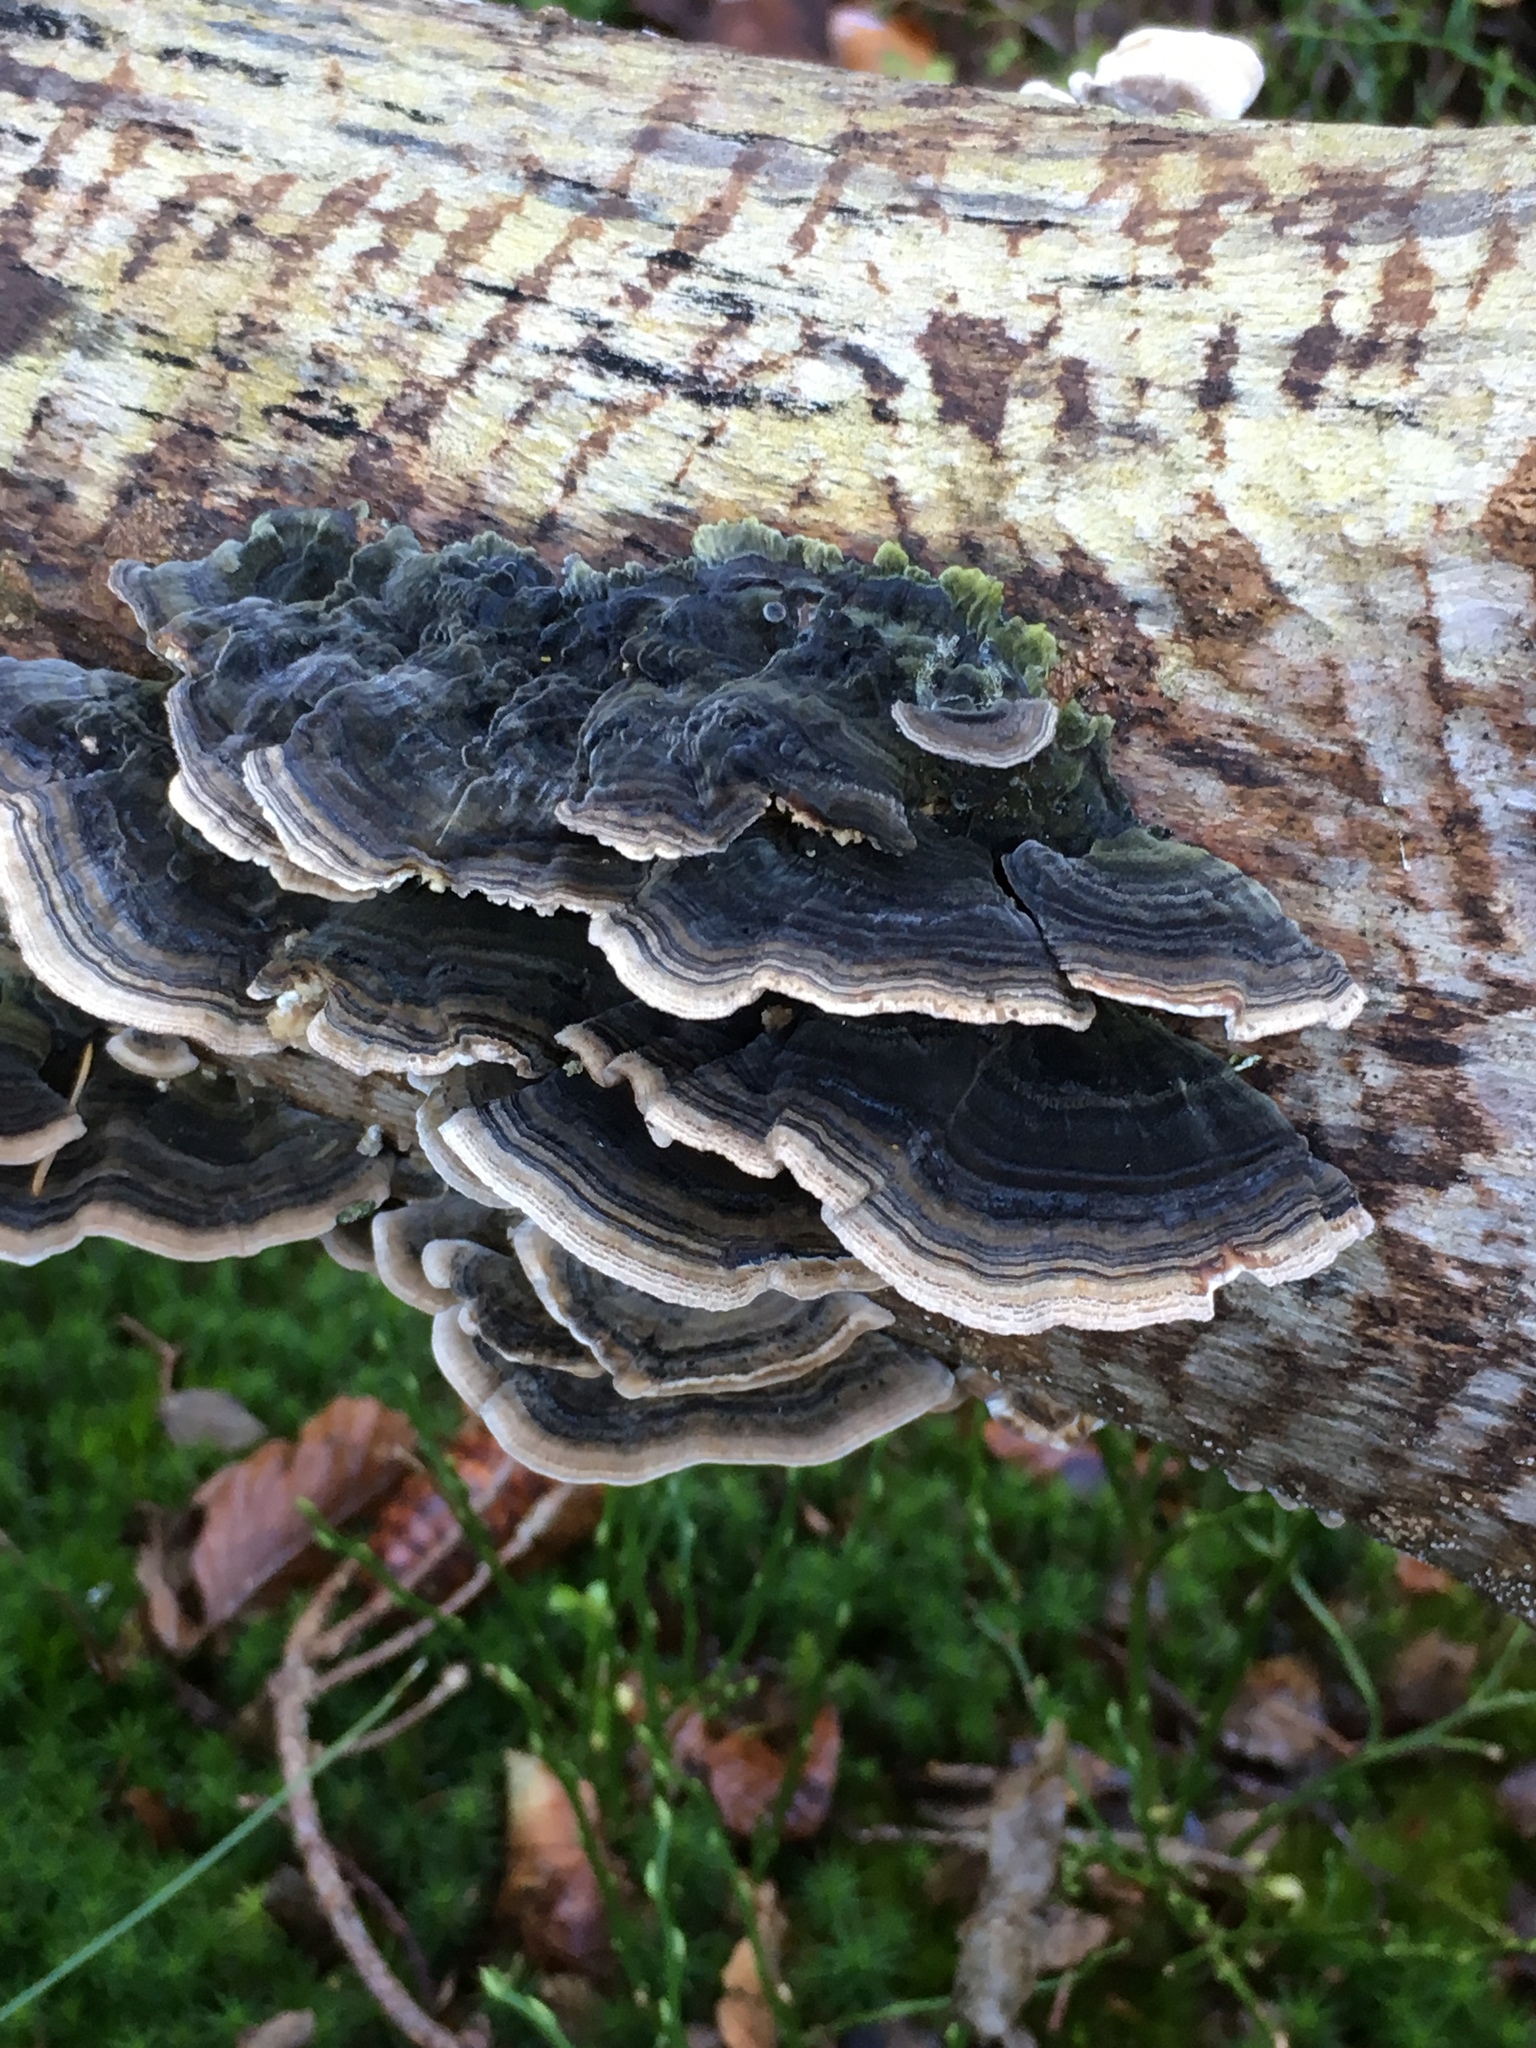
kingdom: Fungi
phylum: Basidiomycota
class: Agaricomycetes
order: Polyporales
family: Polyporaceae
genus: Trametes
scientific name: Trametes versicolor
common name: Turkeytail
